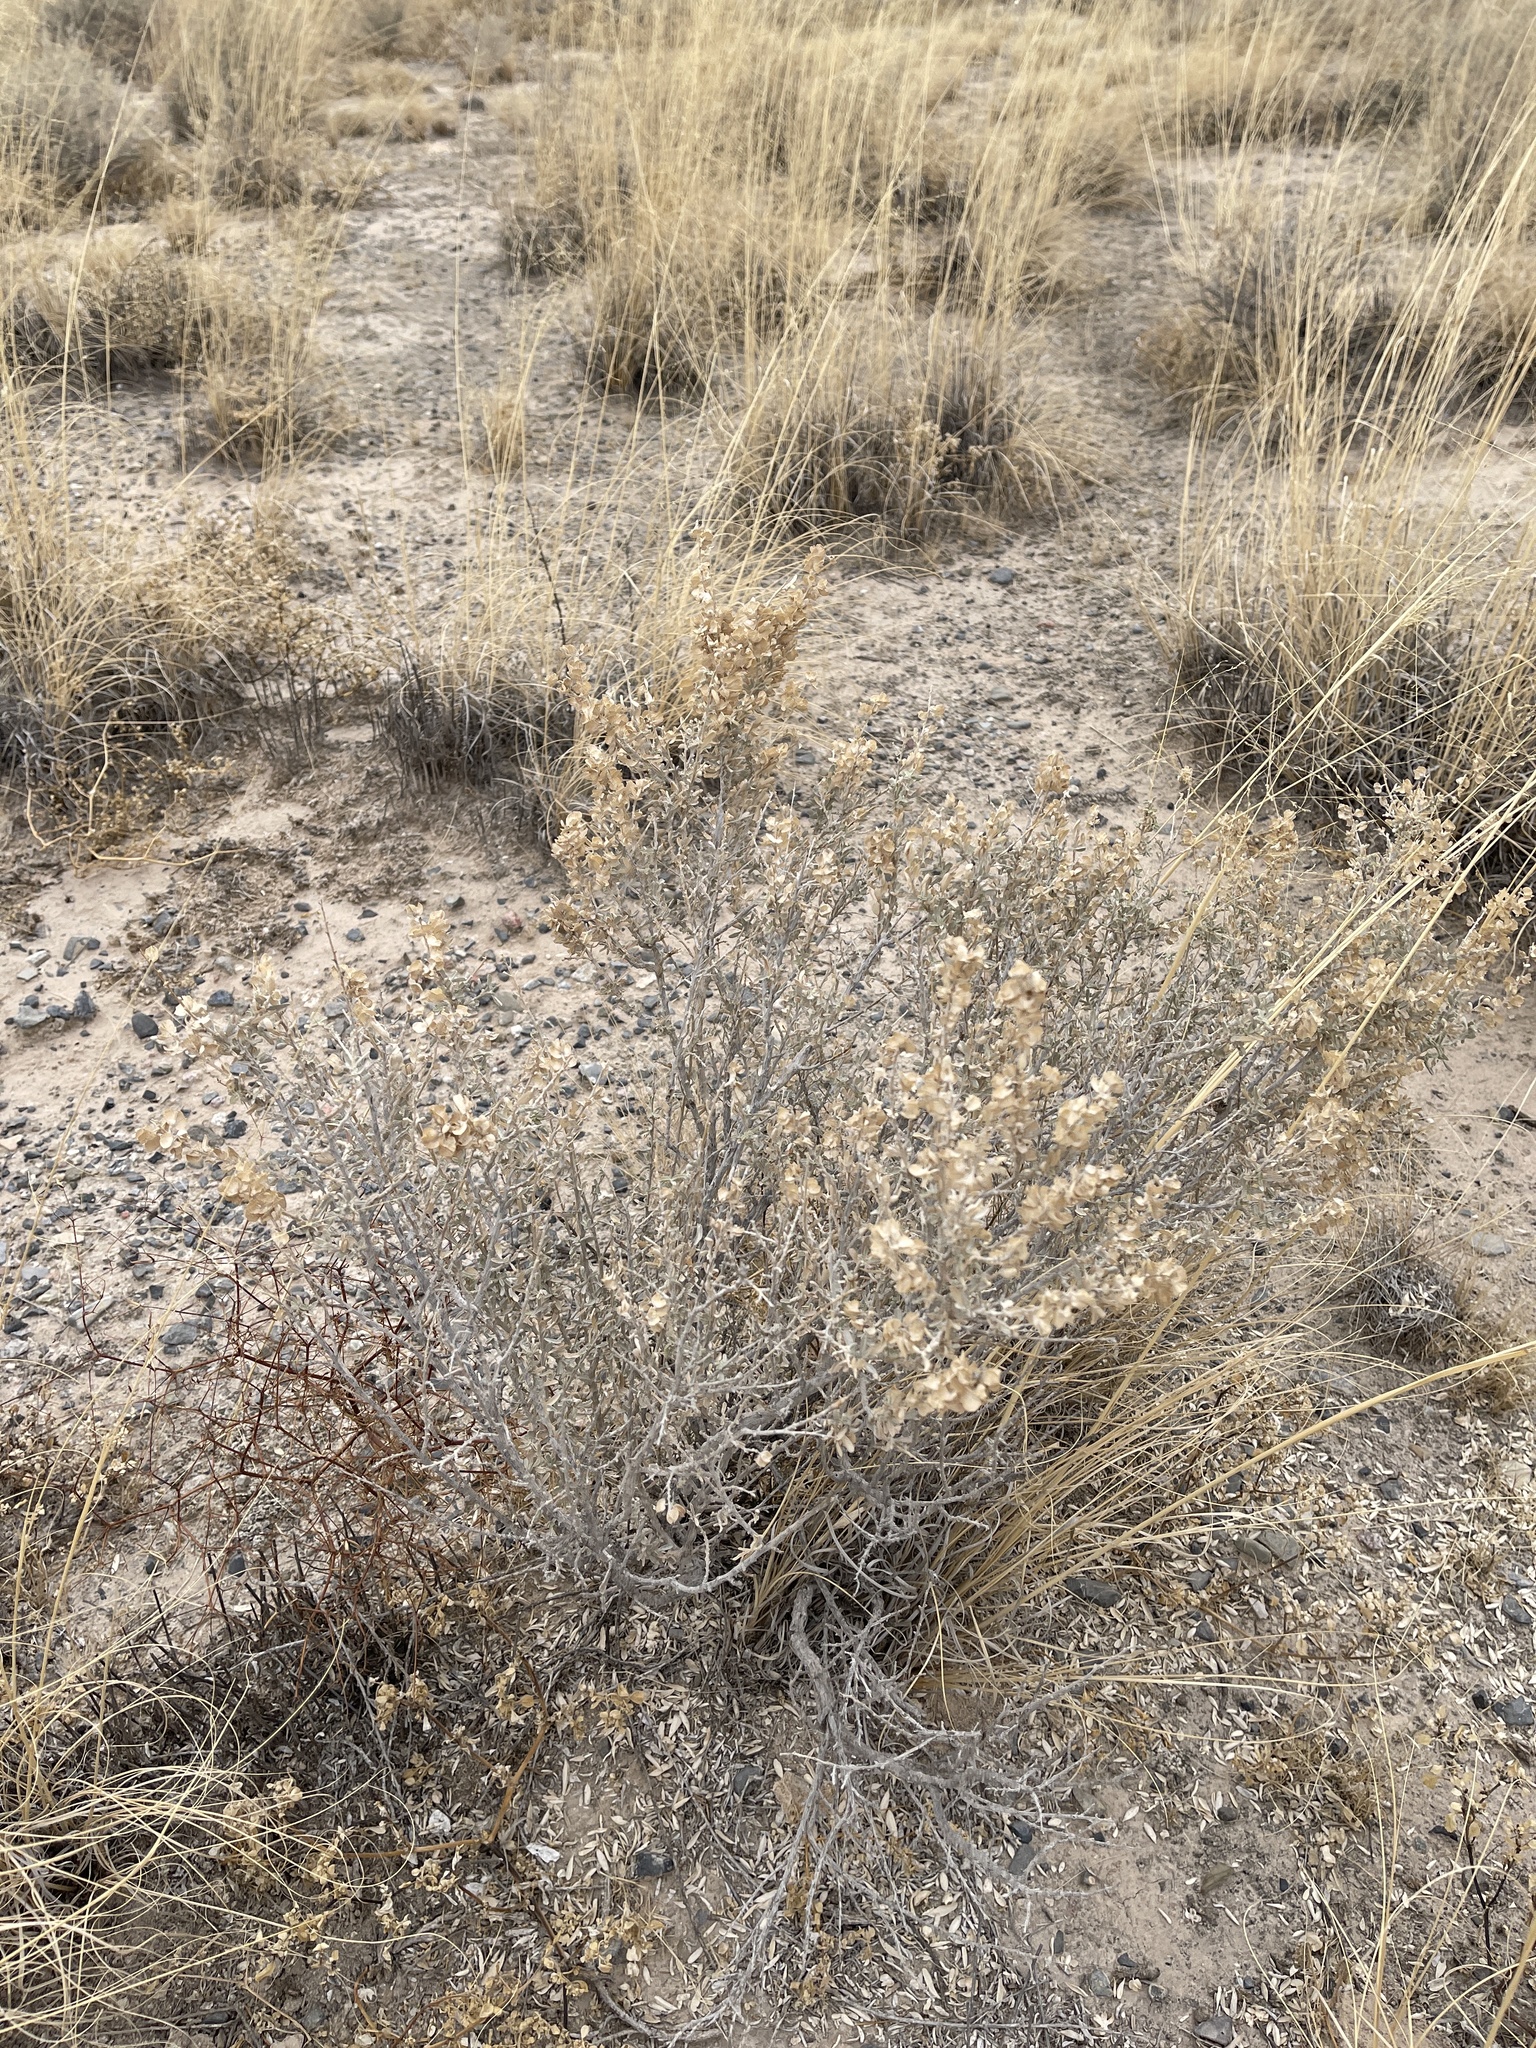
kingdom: Plantae
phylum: Tracheophyta
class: Magnoliopsida
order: Caryophyllales
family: Amaranthaceae
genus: Atriplex
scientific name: Atriplex canescens
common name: Four-wing saltbush
